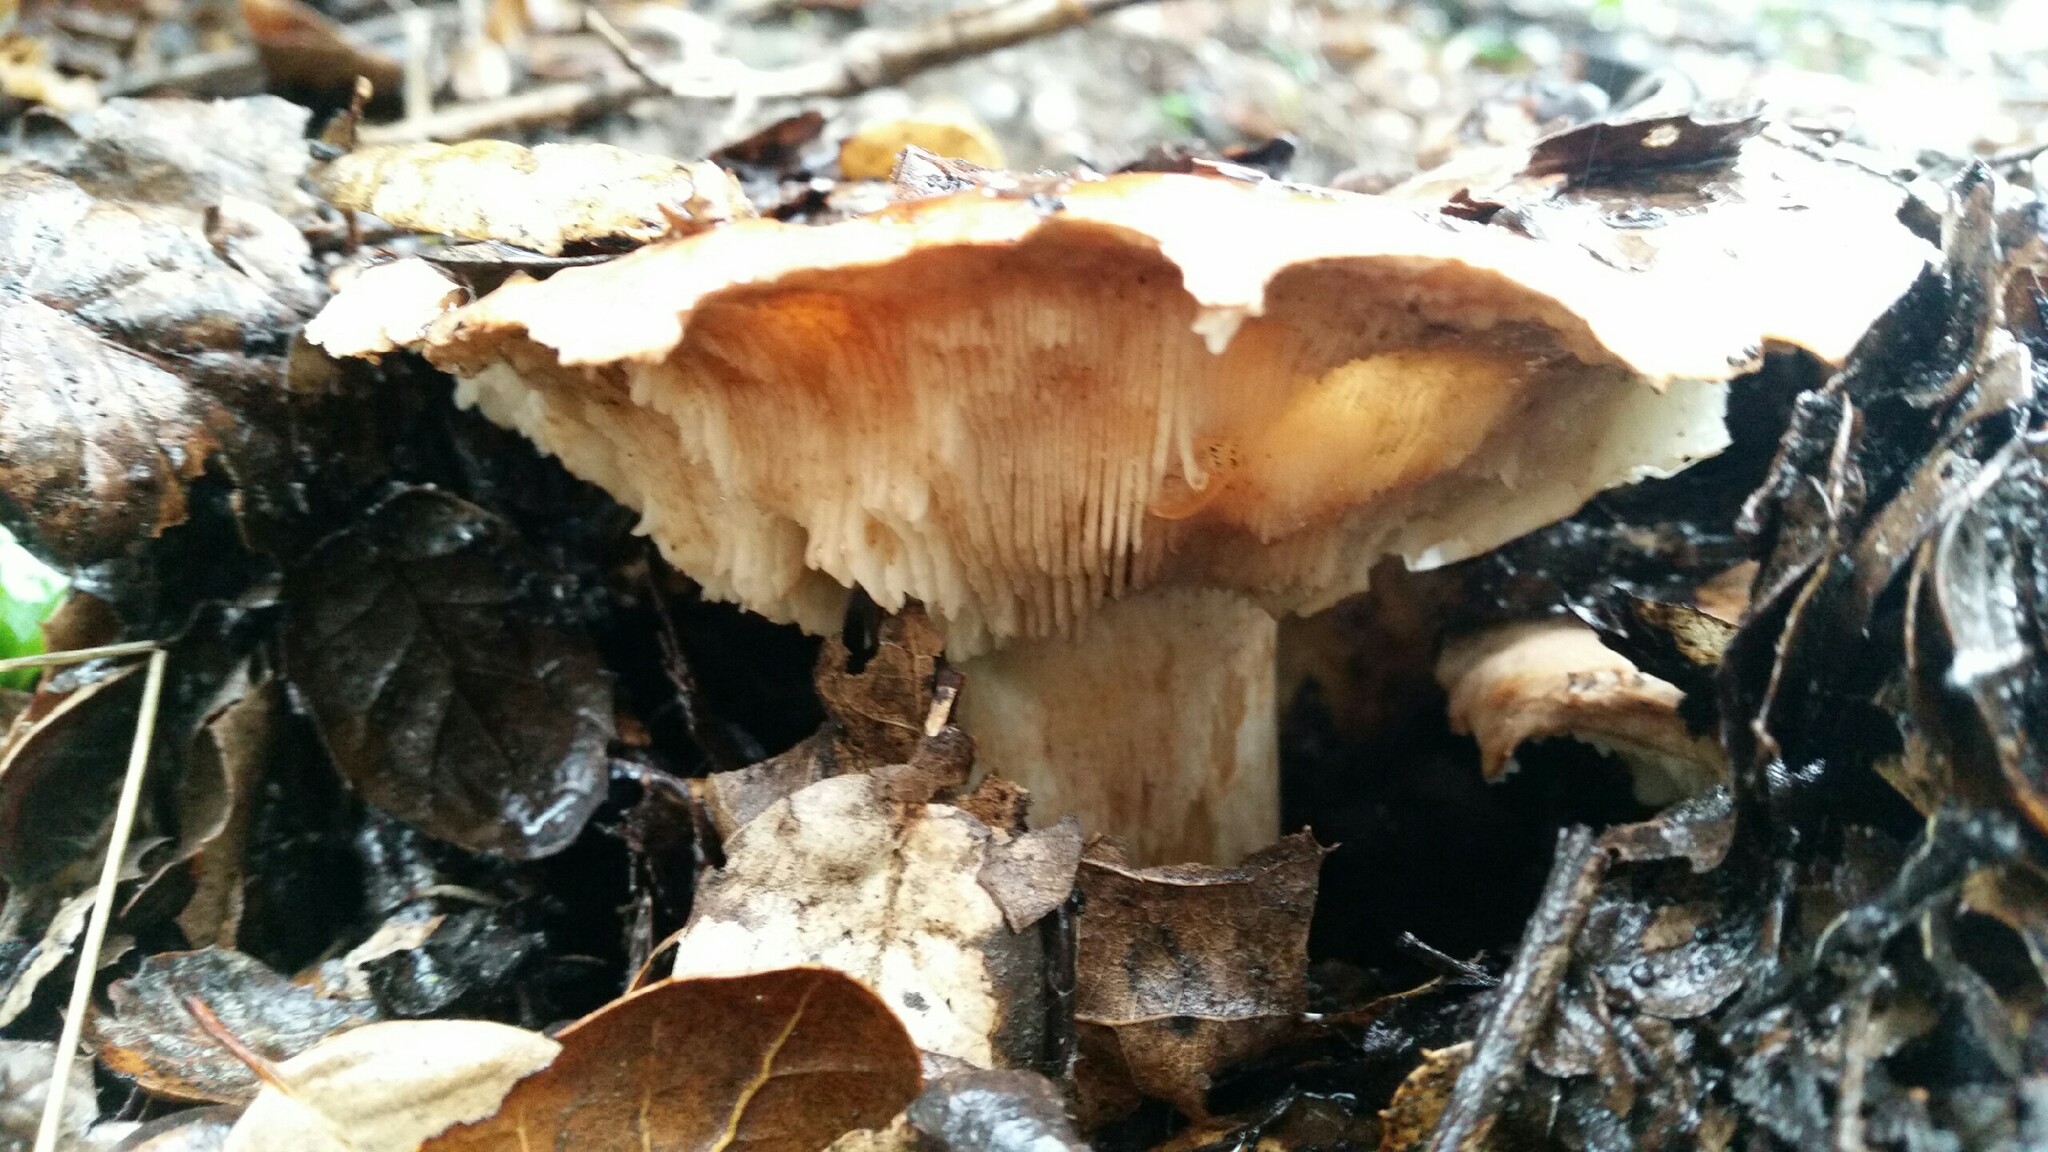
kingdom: Fungi
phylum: Basidiomycota
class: Agaricomycetes
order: Agaricales
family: Tricholomataceae
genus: Melanoleuca
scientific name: Melanoleuca dryophila
